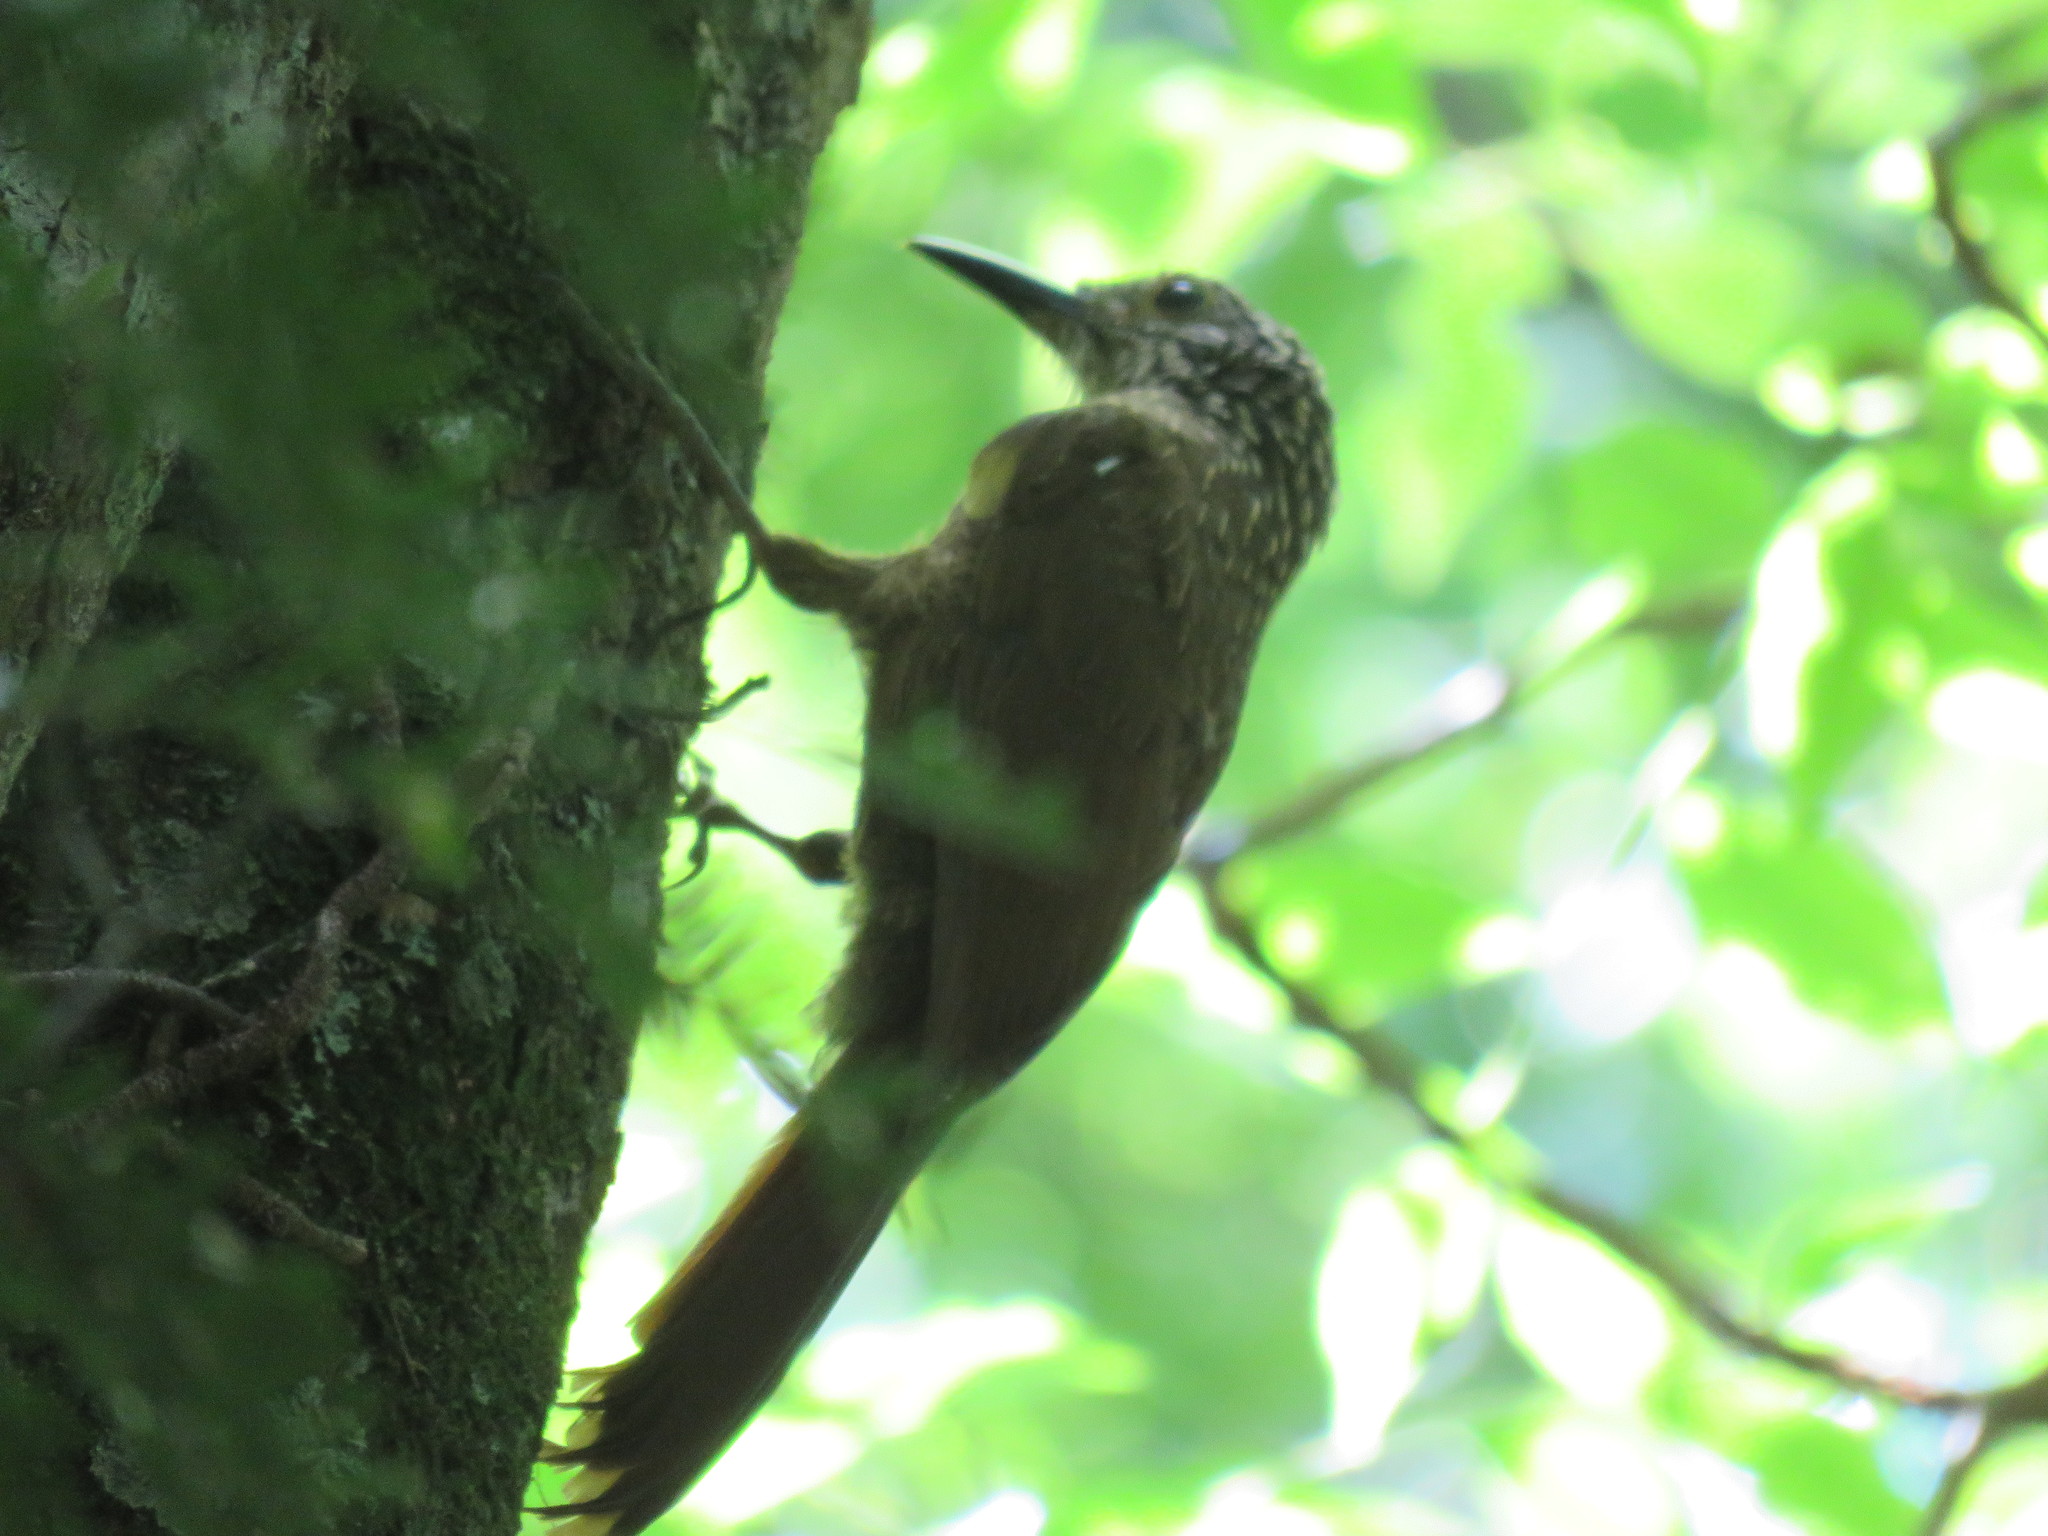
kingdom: Animalia
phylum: Chordata
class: Aves
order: Passeriformes
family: Furnariidae
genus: Dendrocolaptes
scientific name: Dendrocolaptes platyrostris
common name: Planalto woodcreeper
